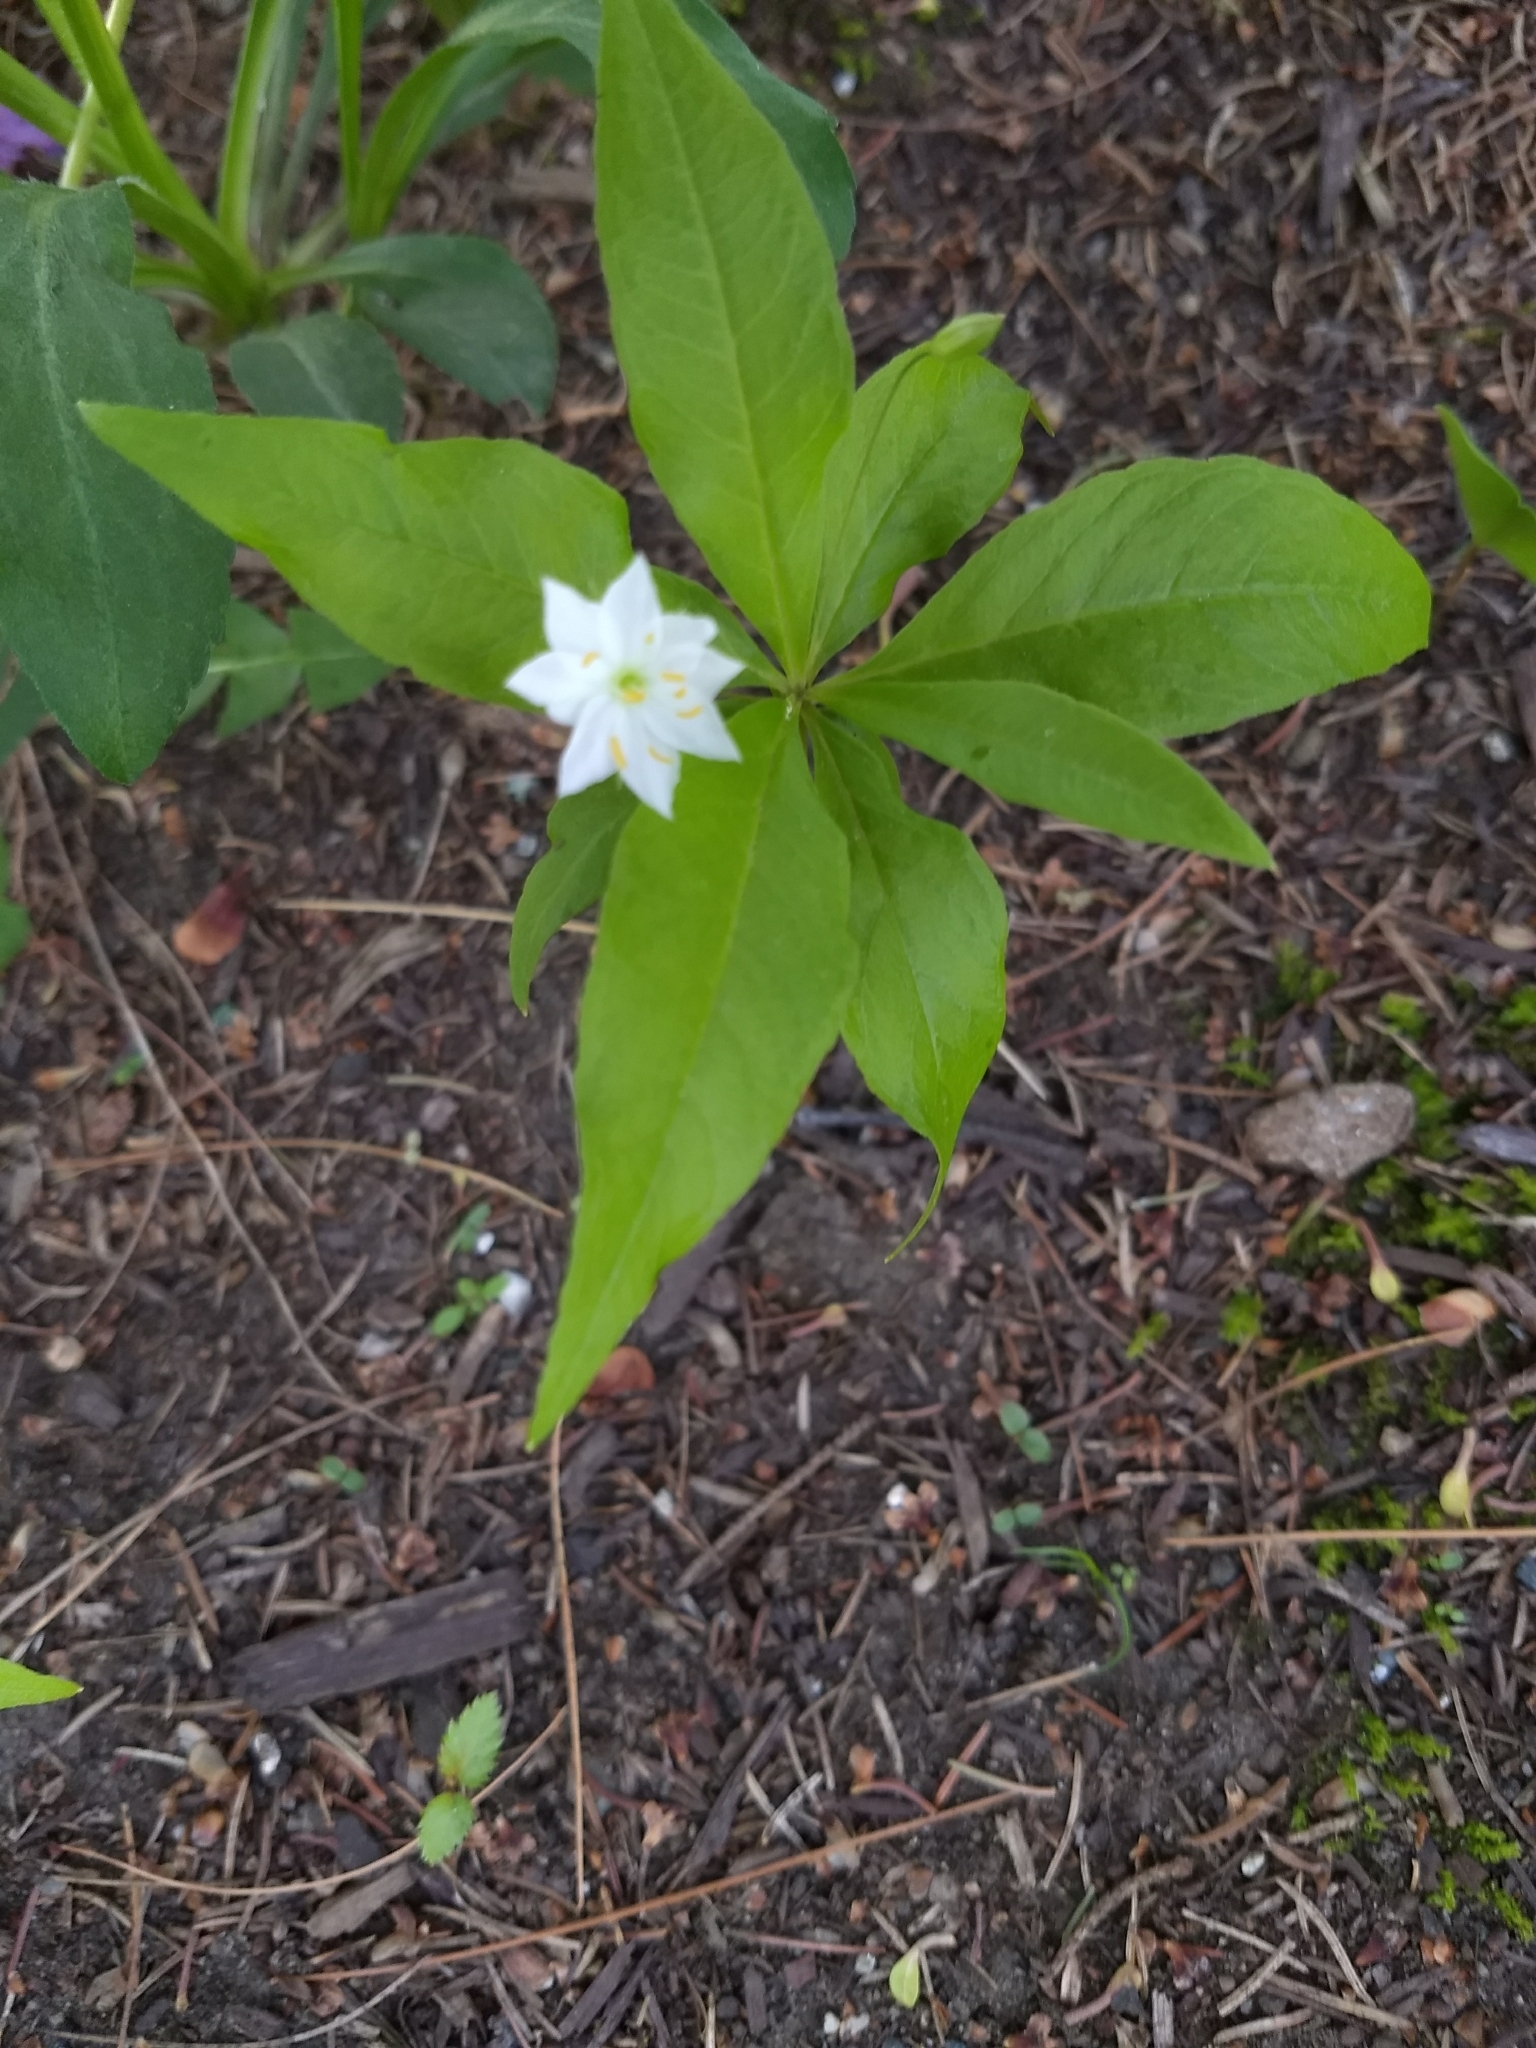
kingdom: Plantae
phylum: Tracheophyta
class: Magnoliopsida
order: Ericales
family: Primulaceae
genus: Lysimachia
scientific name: Lysimachia borealis
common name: American starflower
